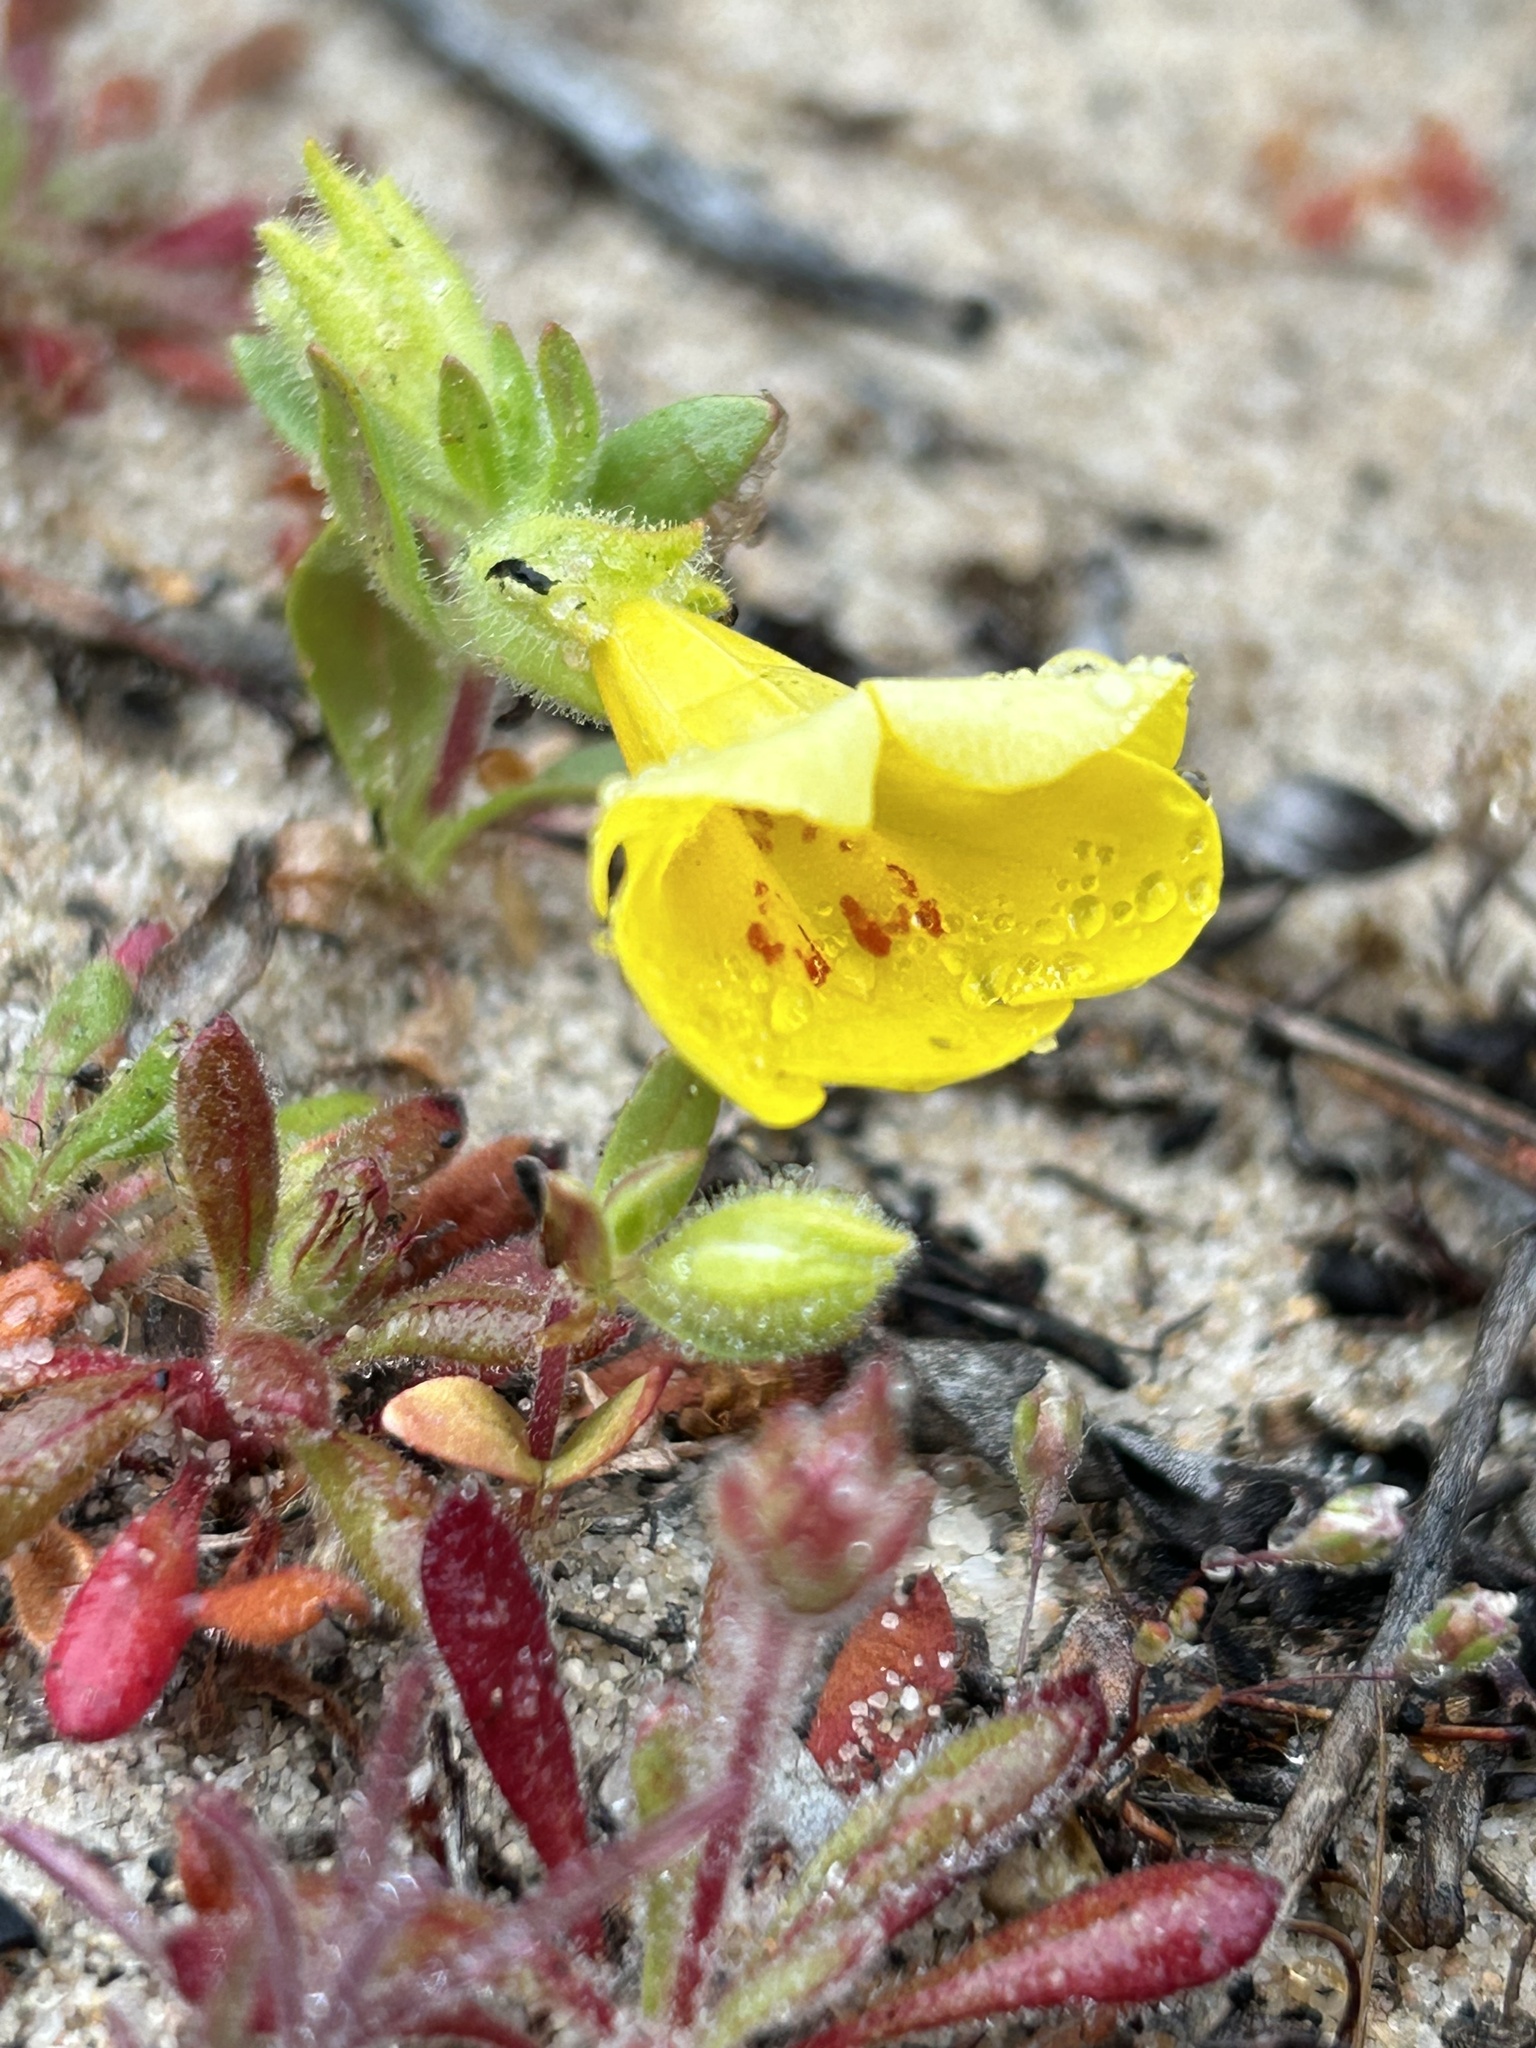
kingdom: Plantae
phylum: Tracheophyta
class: Magnoliopsida
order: Lamiales
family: Phrymaceae
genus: Diplacus
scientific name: Diplacus vandenbergensis
